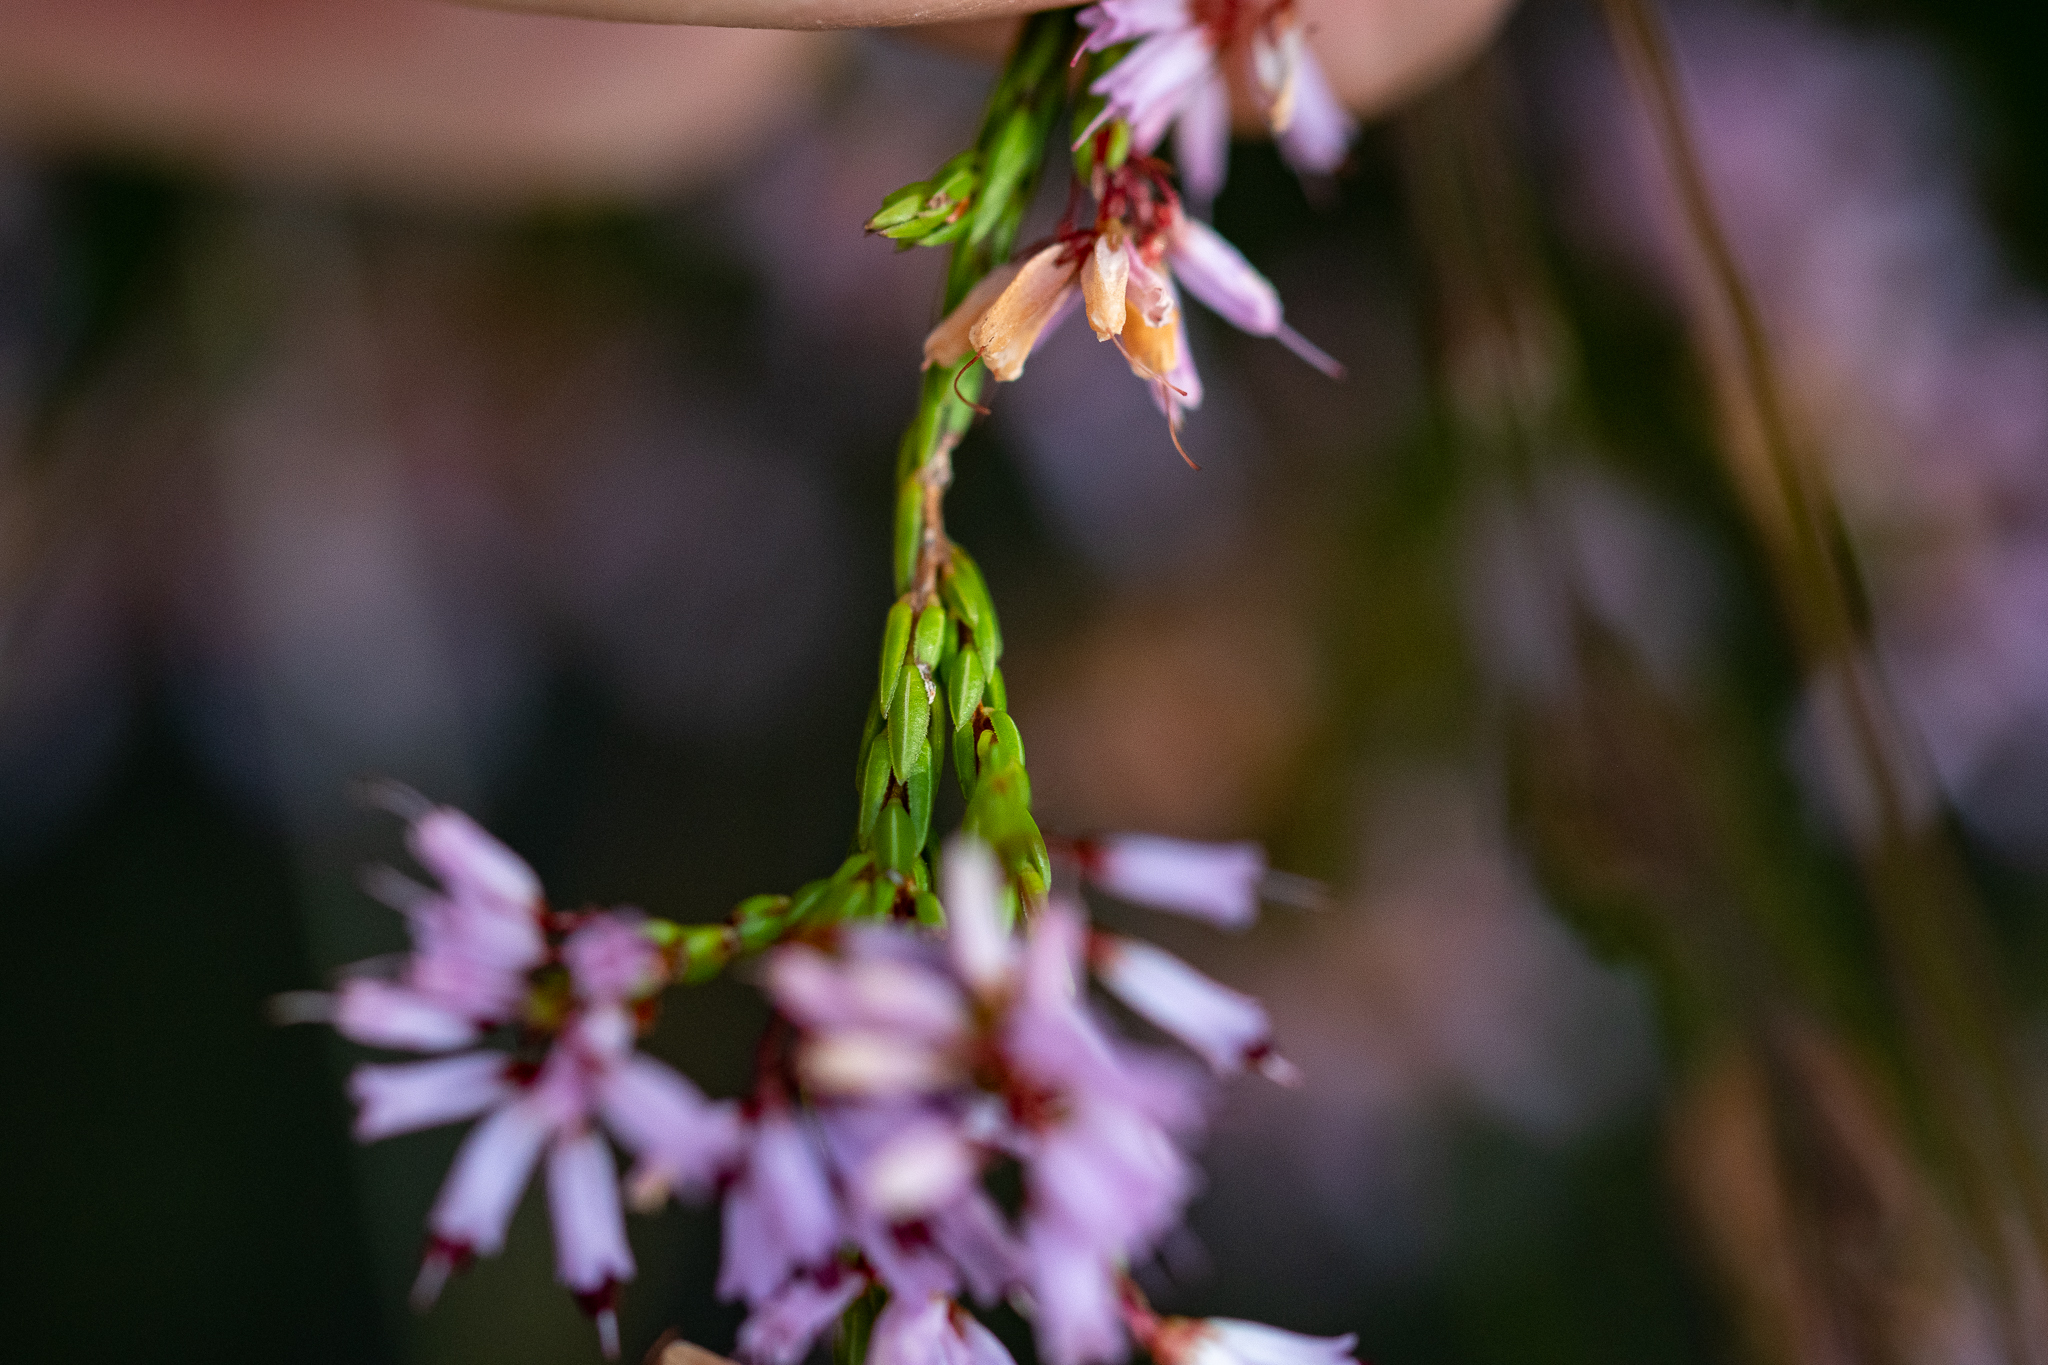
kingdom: Plantae
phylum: Tracheophyta
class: Magnoliopsida
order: Ericales
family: Ericaceae
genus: Erica
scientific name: Erica equisetifolia
